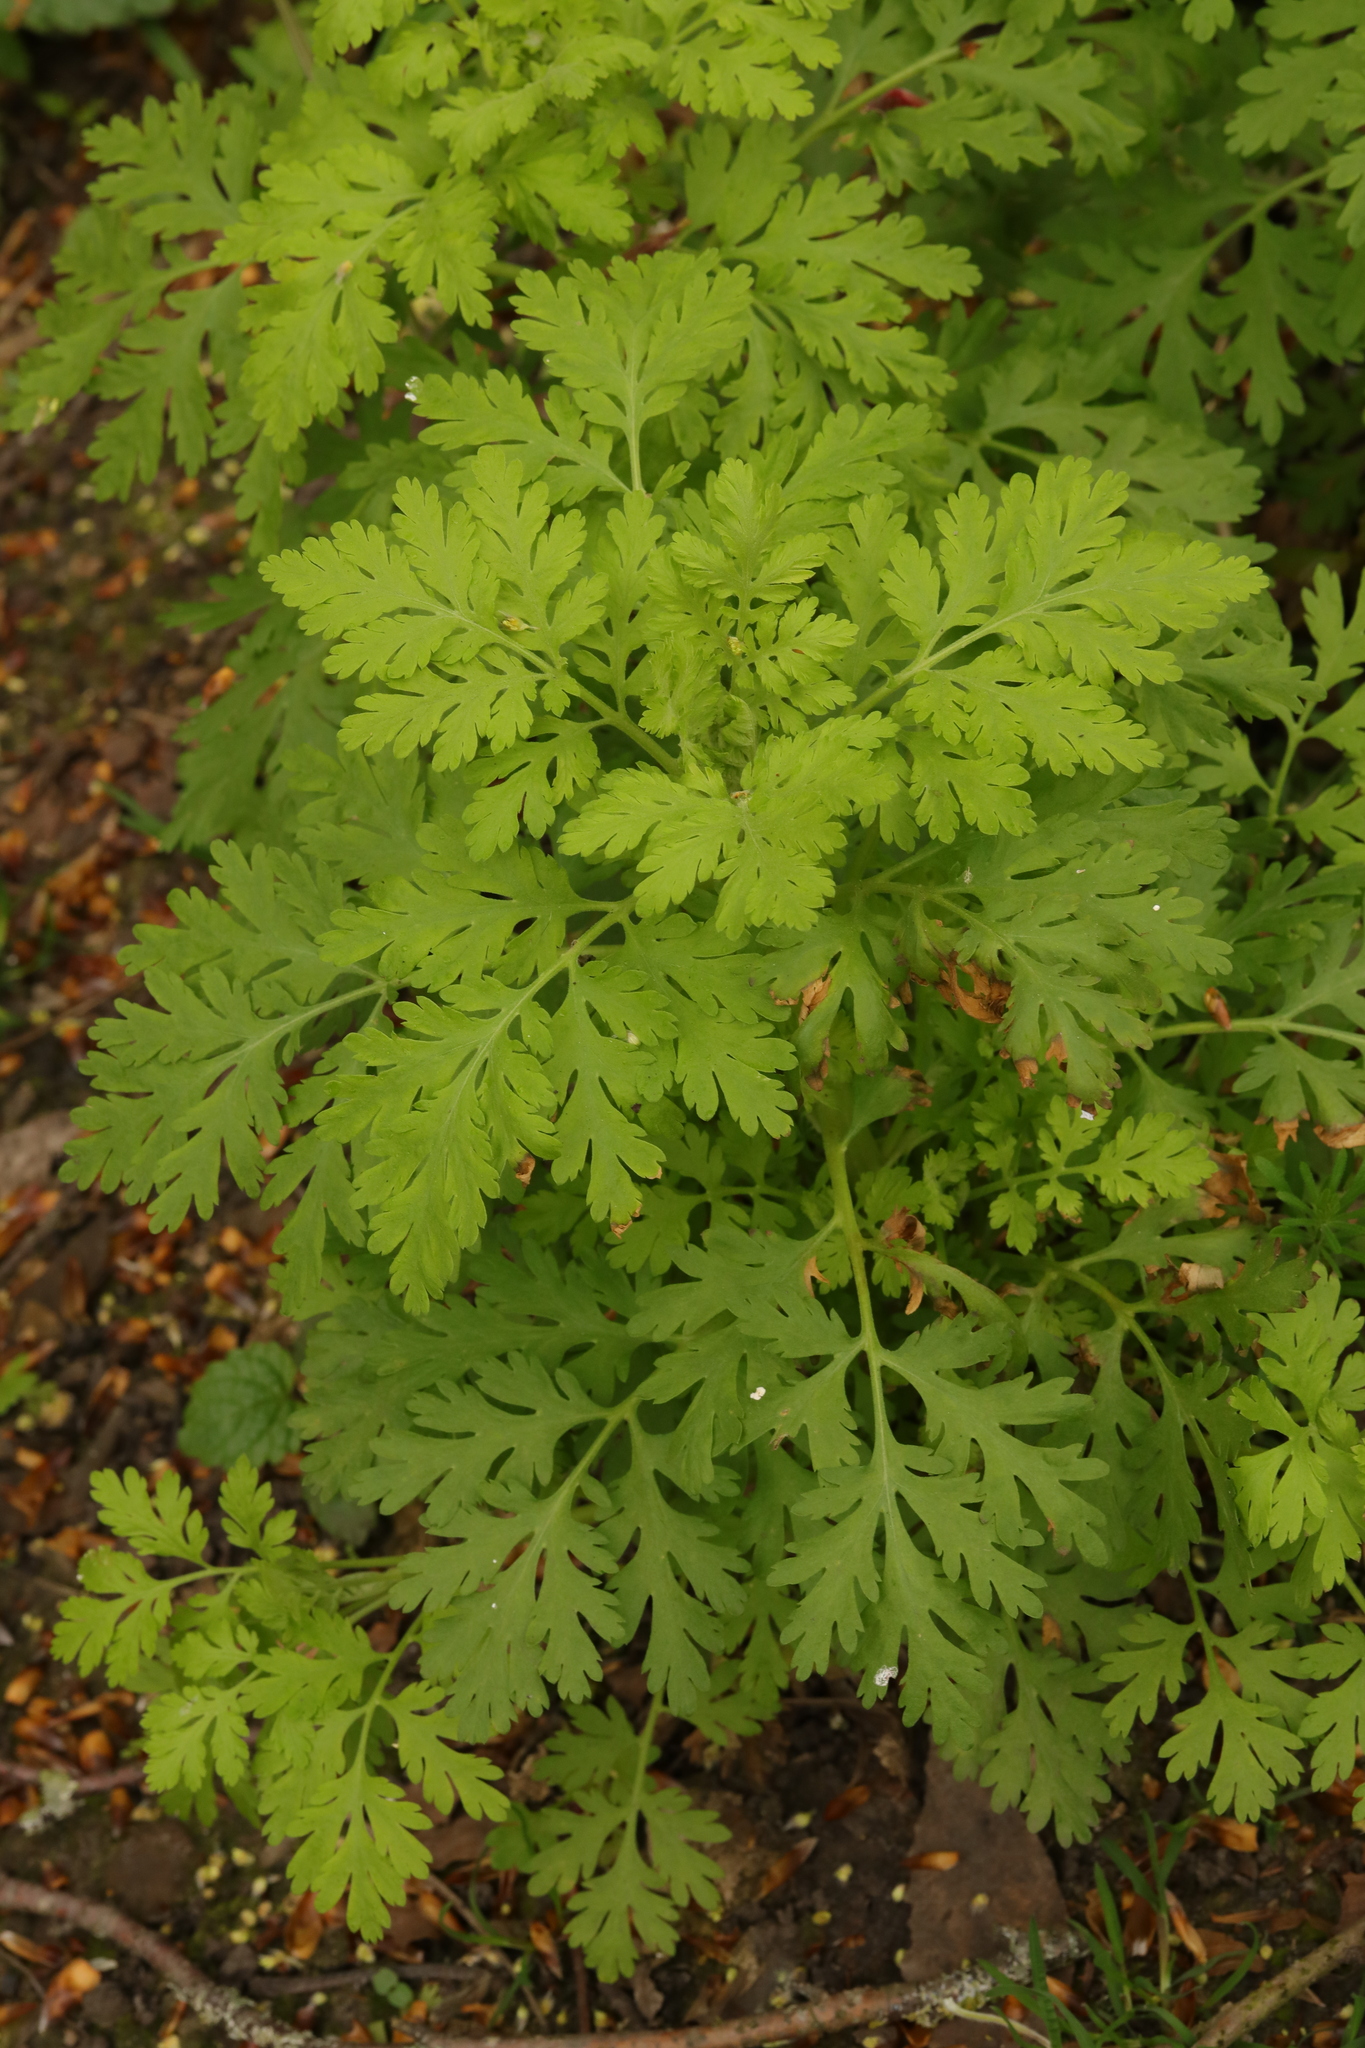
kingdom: Plantae
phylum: Tracheophyta
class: Magnoliopsida
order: Asterales
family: Asteraceae
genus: Tanacetum
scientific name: Tanacetum parthenium
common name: Feverfew
